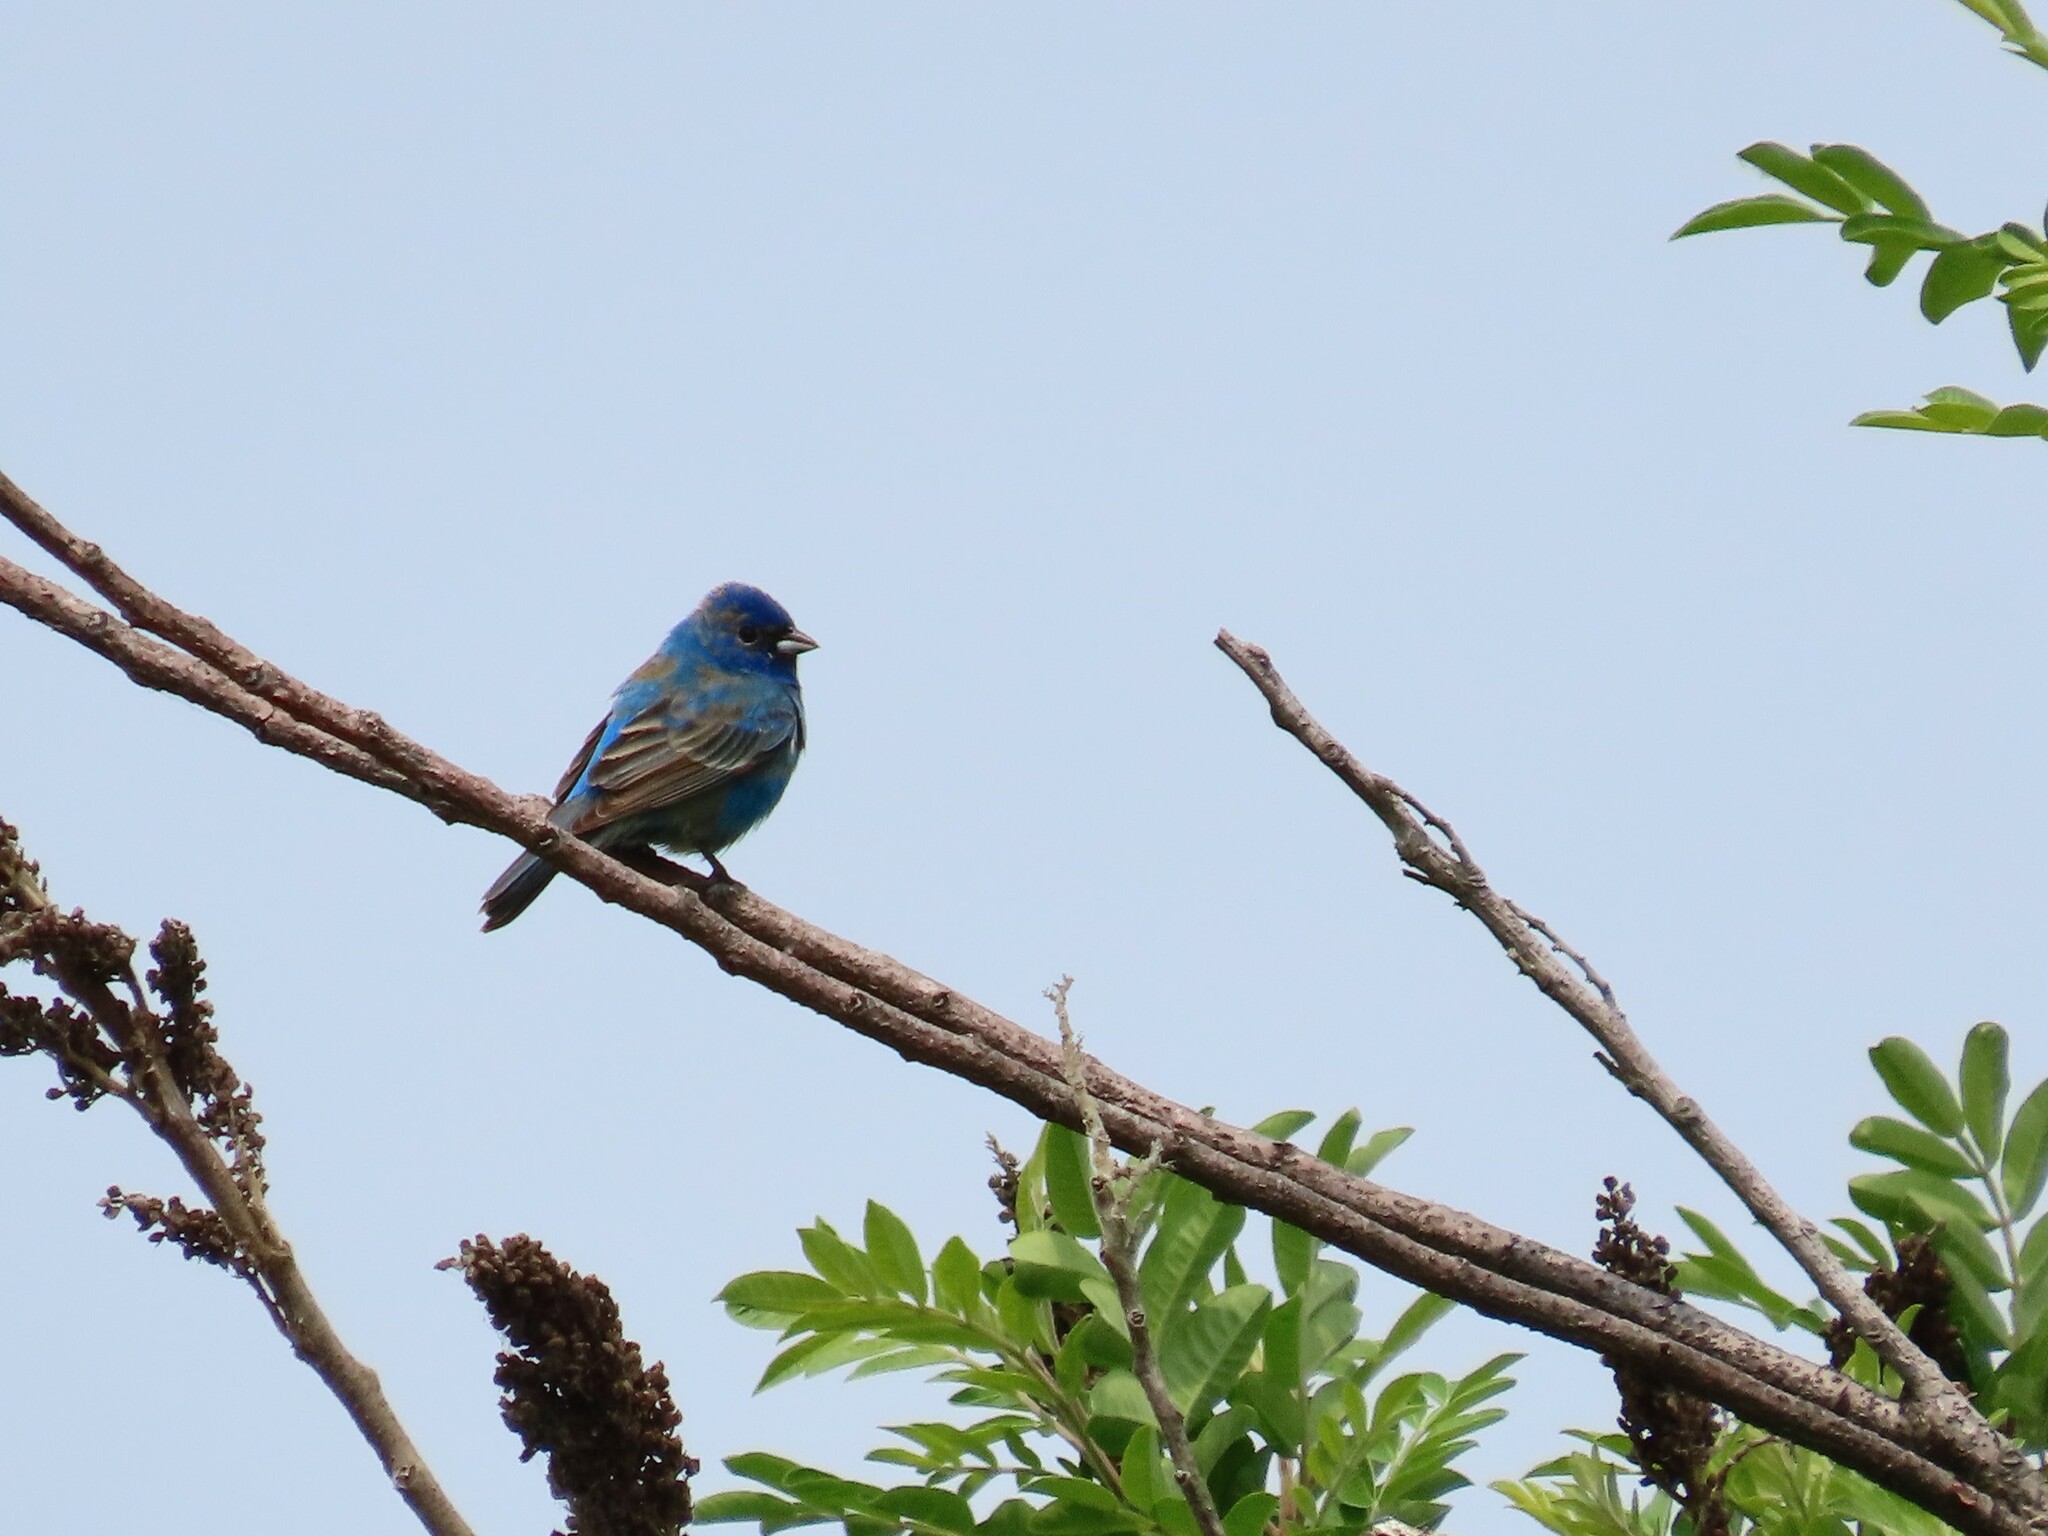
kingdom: Animalia
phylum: Chordata
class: Aves
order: Passeriformes
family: Cardinalidae
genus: Passerina
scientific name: Passerina cyanea
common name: Indigo bunting
